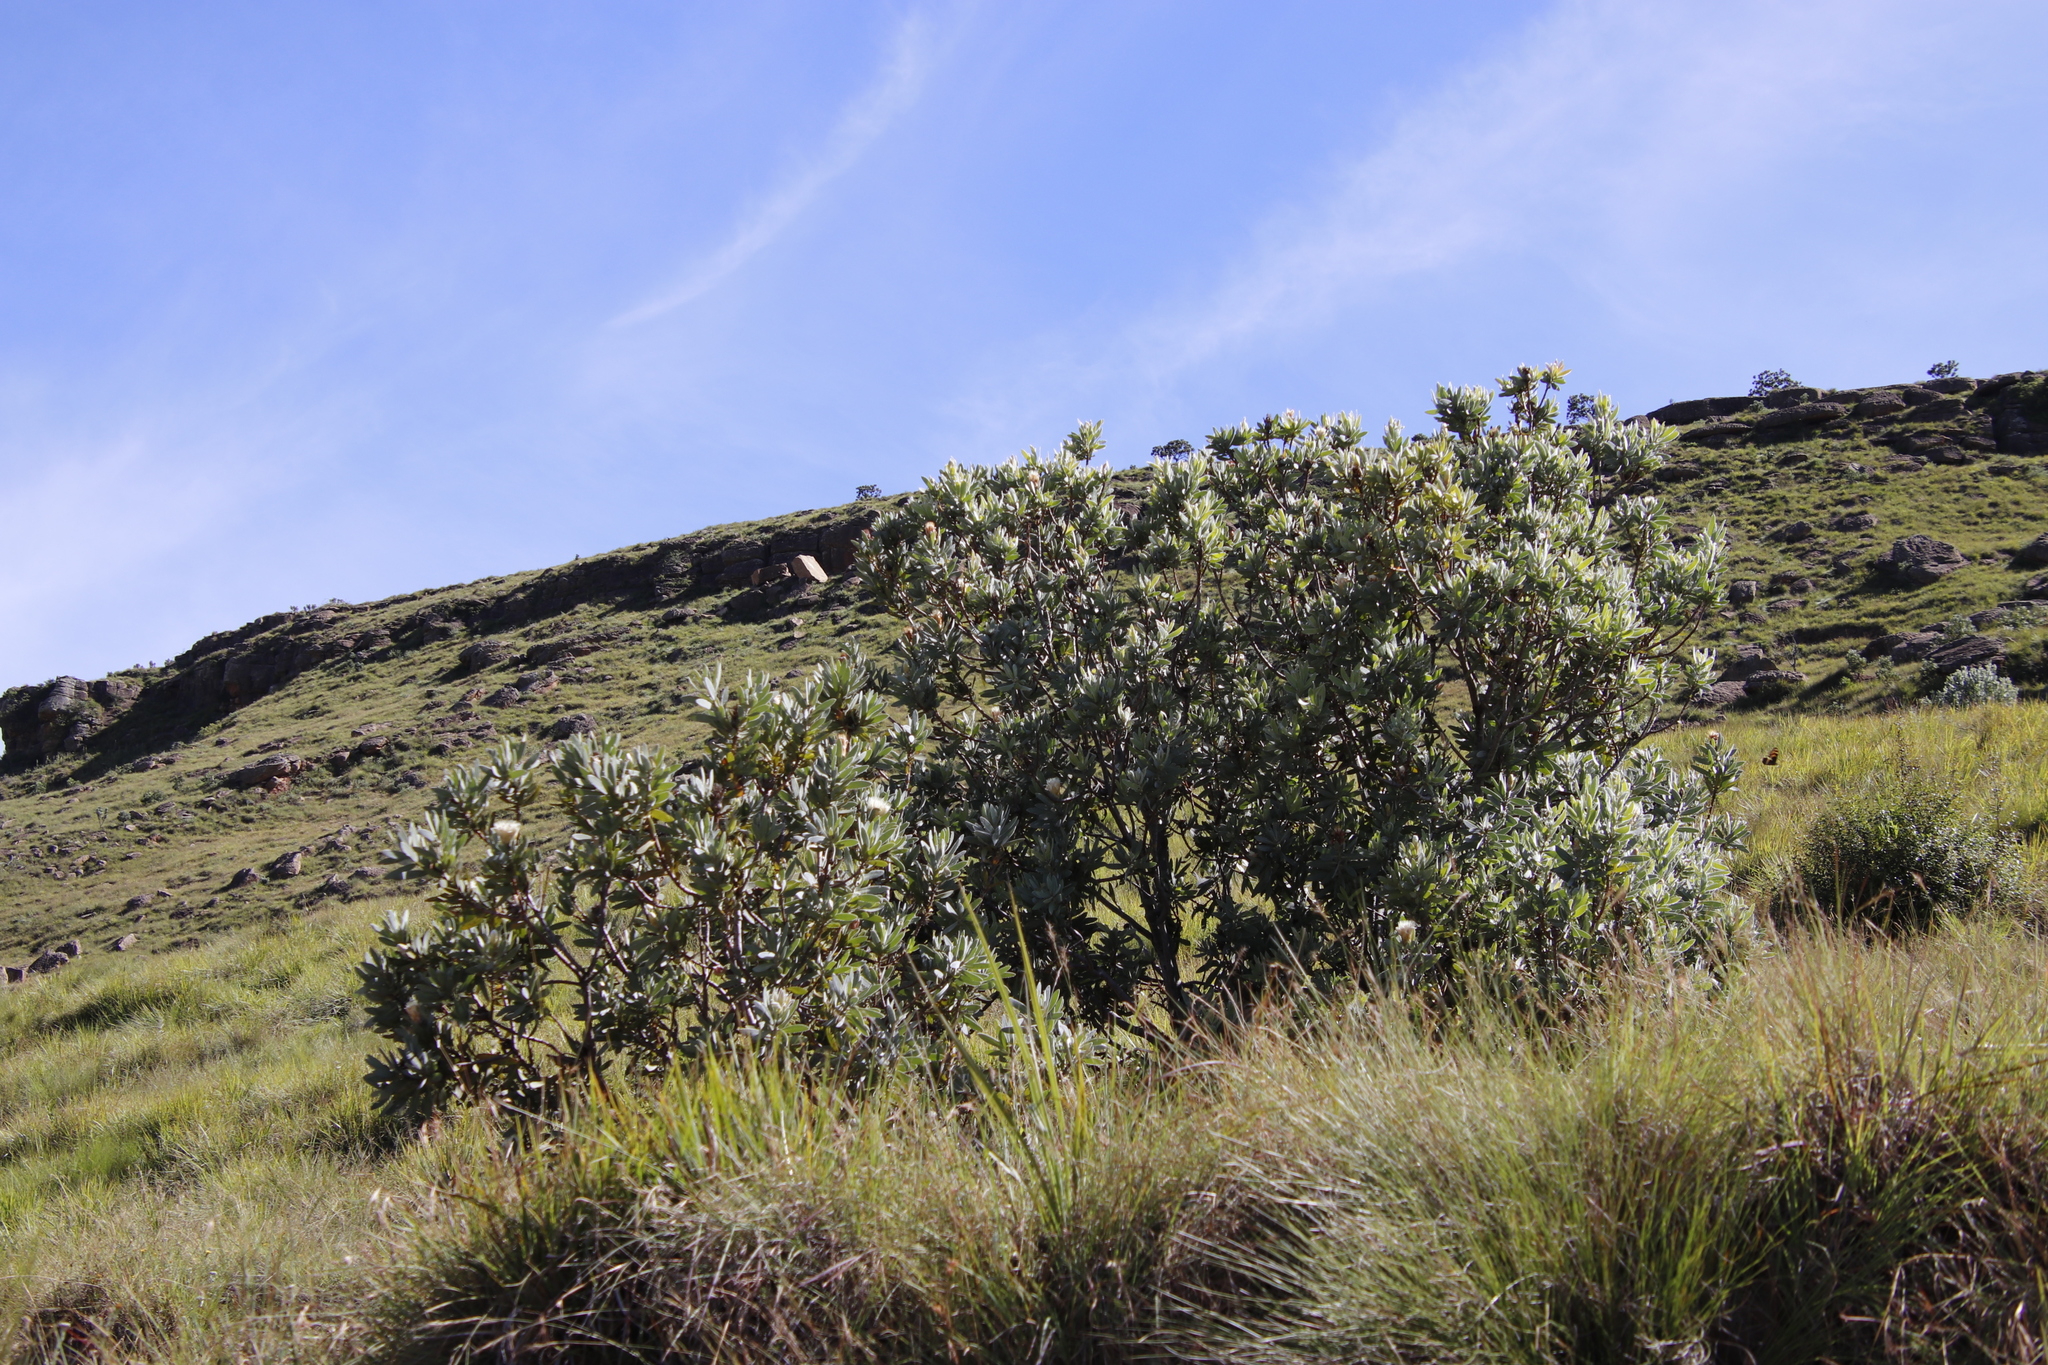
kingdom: Plantae
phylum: Tracheophyta
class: Magnoliopsida
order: Proteales
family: Proteaceae
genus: Protea
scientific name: Protea subvestita
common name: Lip-flower sugarbush
